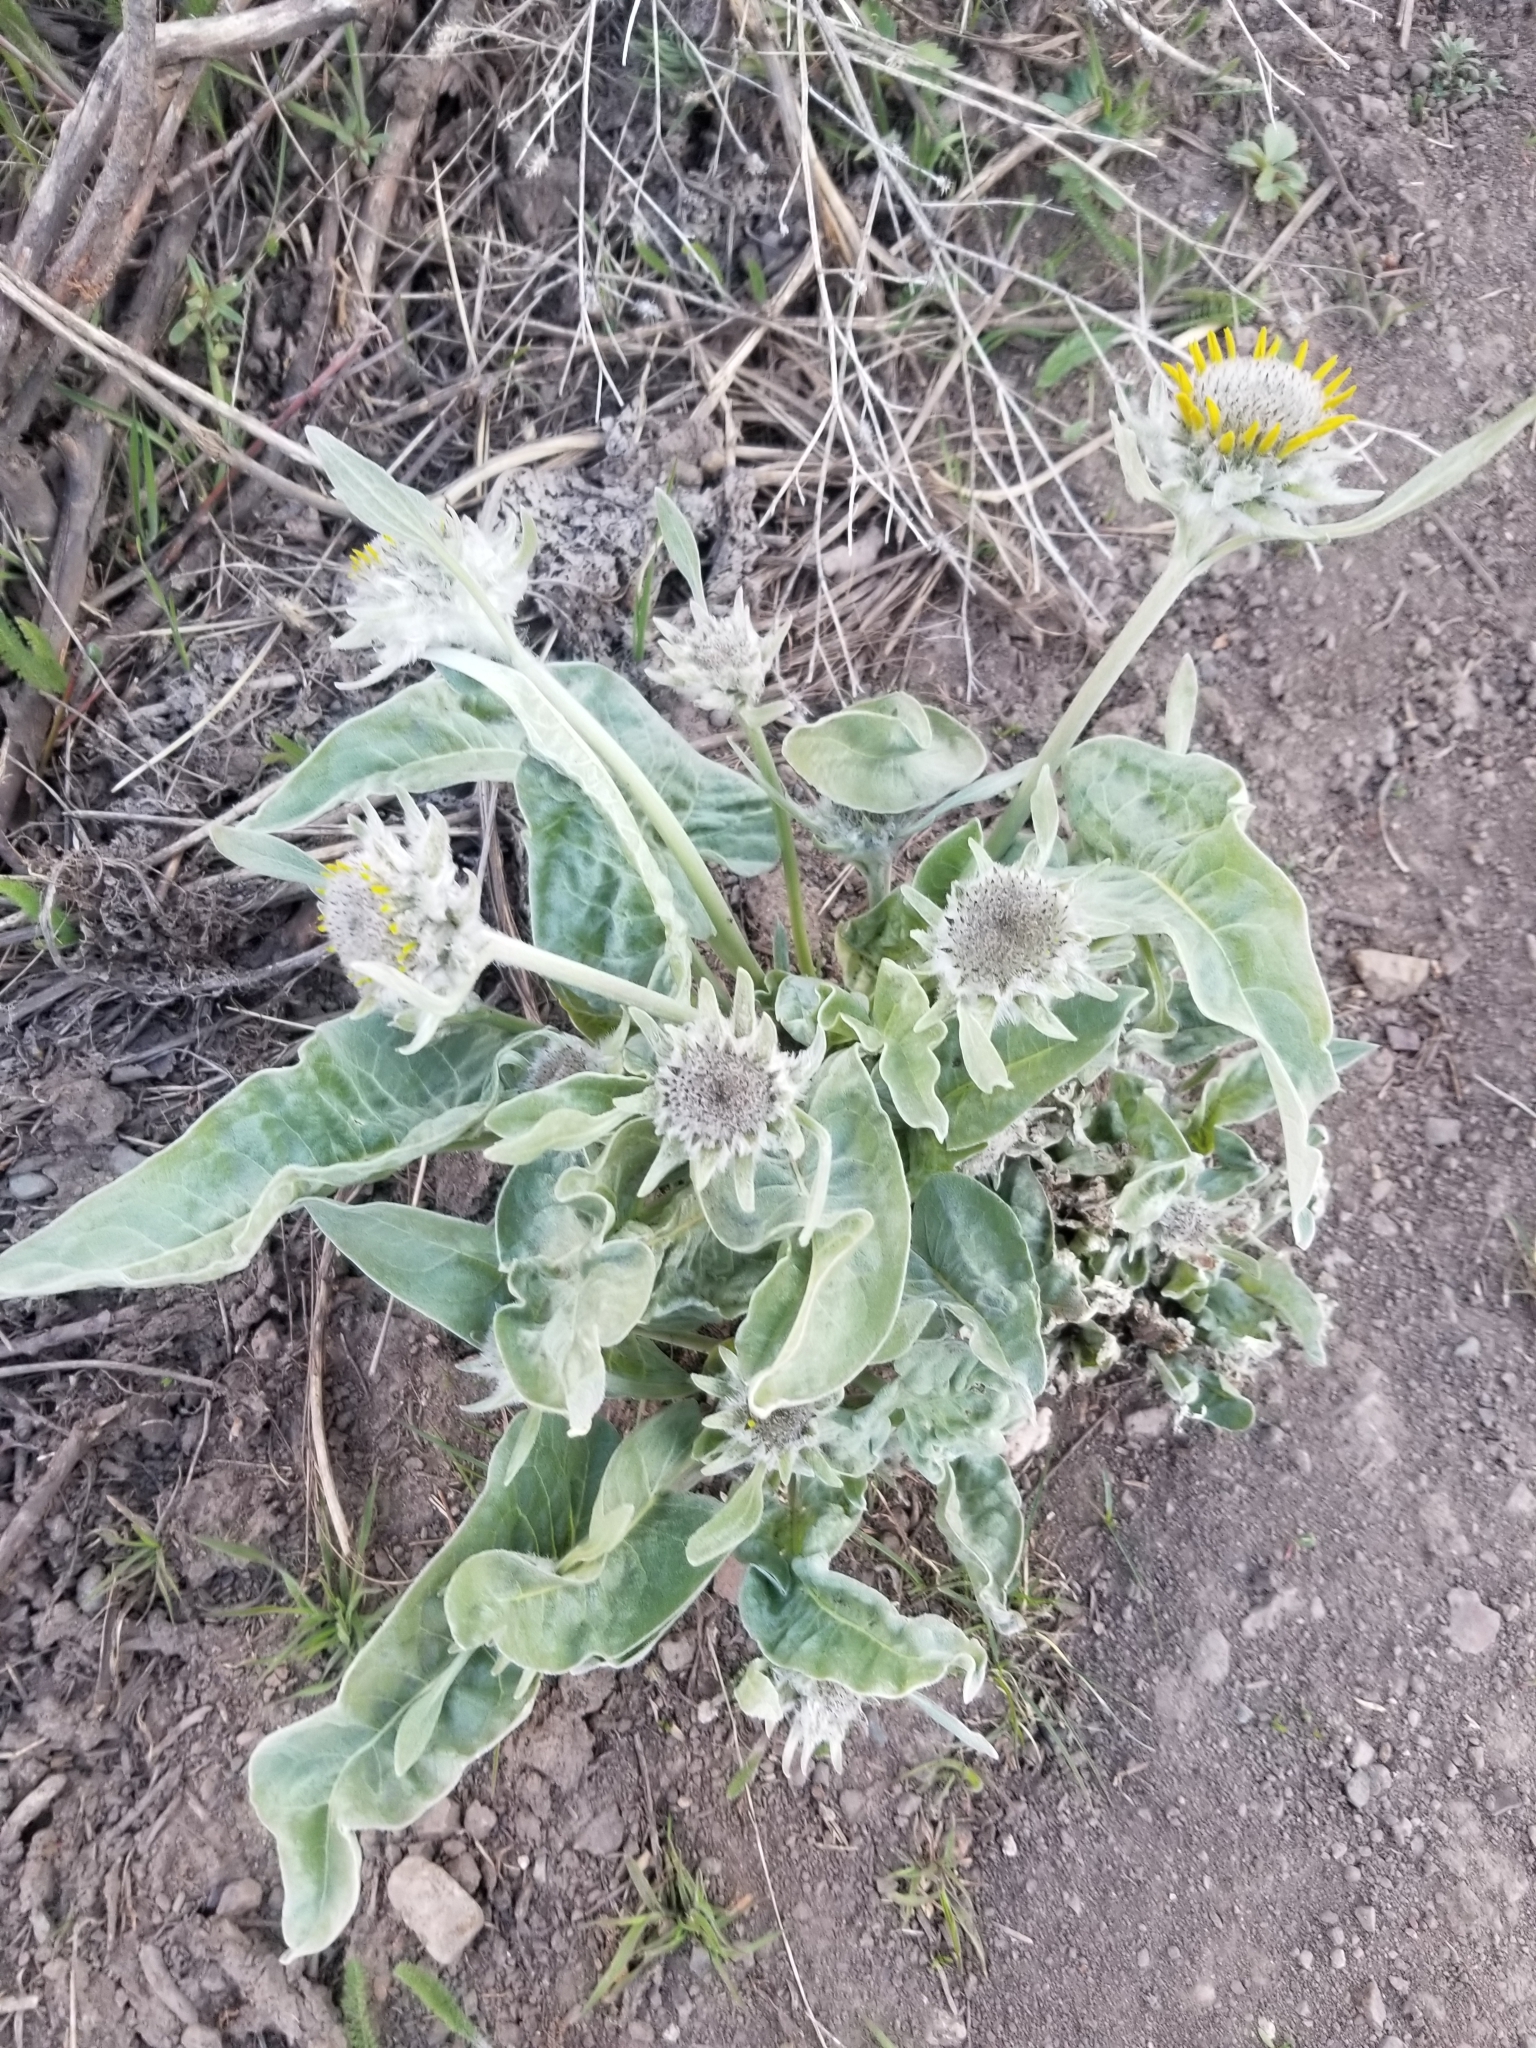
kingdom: Plantae
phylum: Tracheophyta
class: Magnoliopsida
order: Asterales
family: Asteraceae
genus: Wyethia
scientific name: Wyethia sagittata
